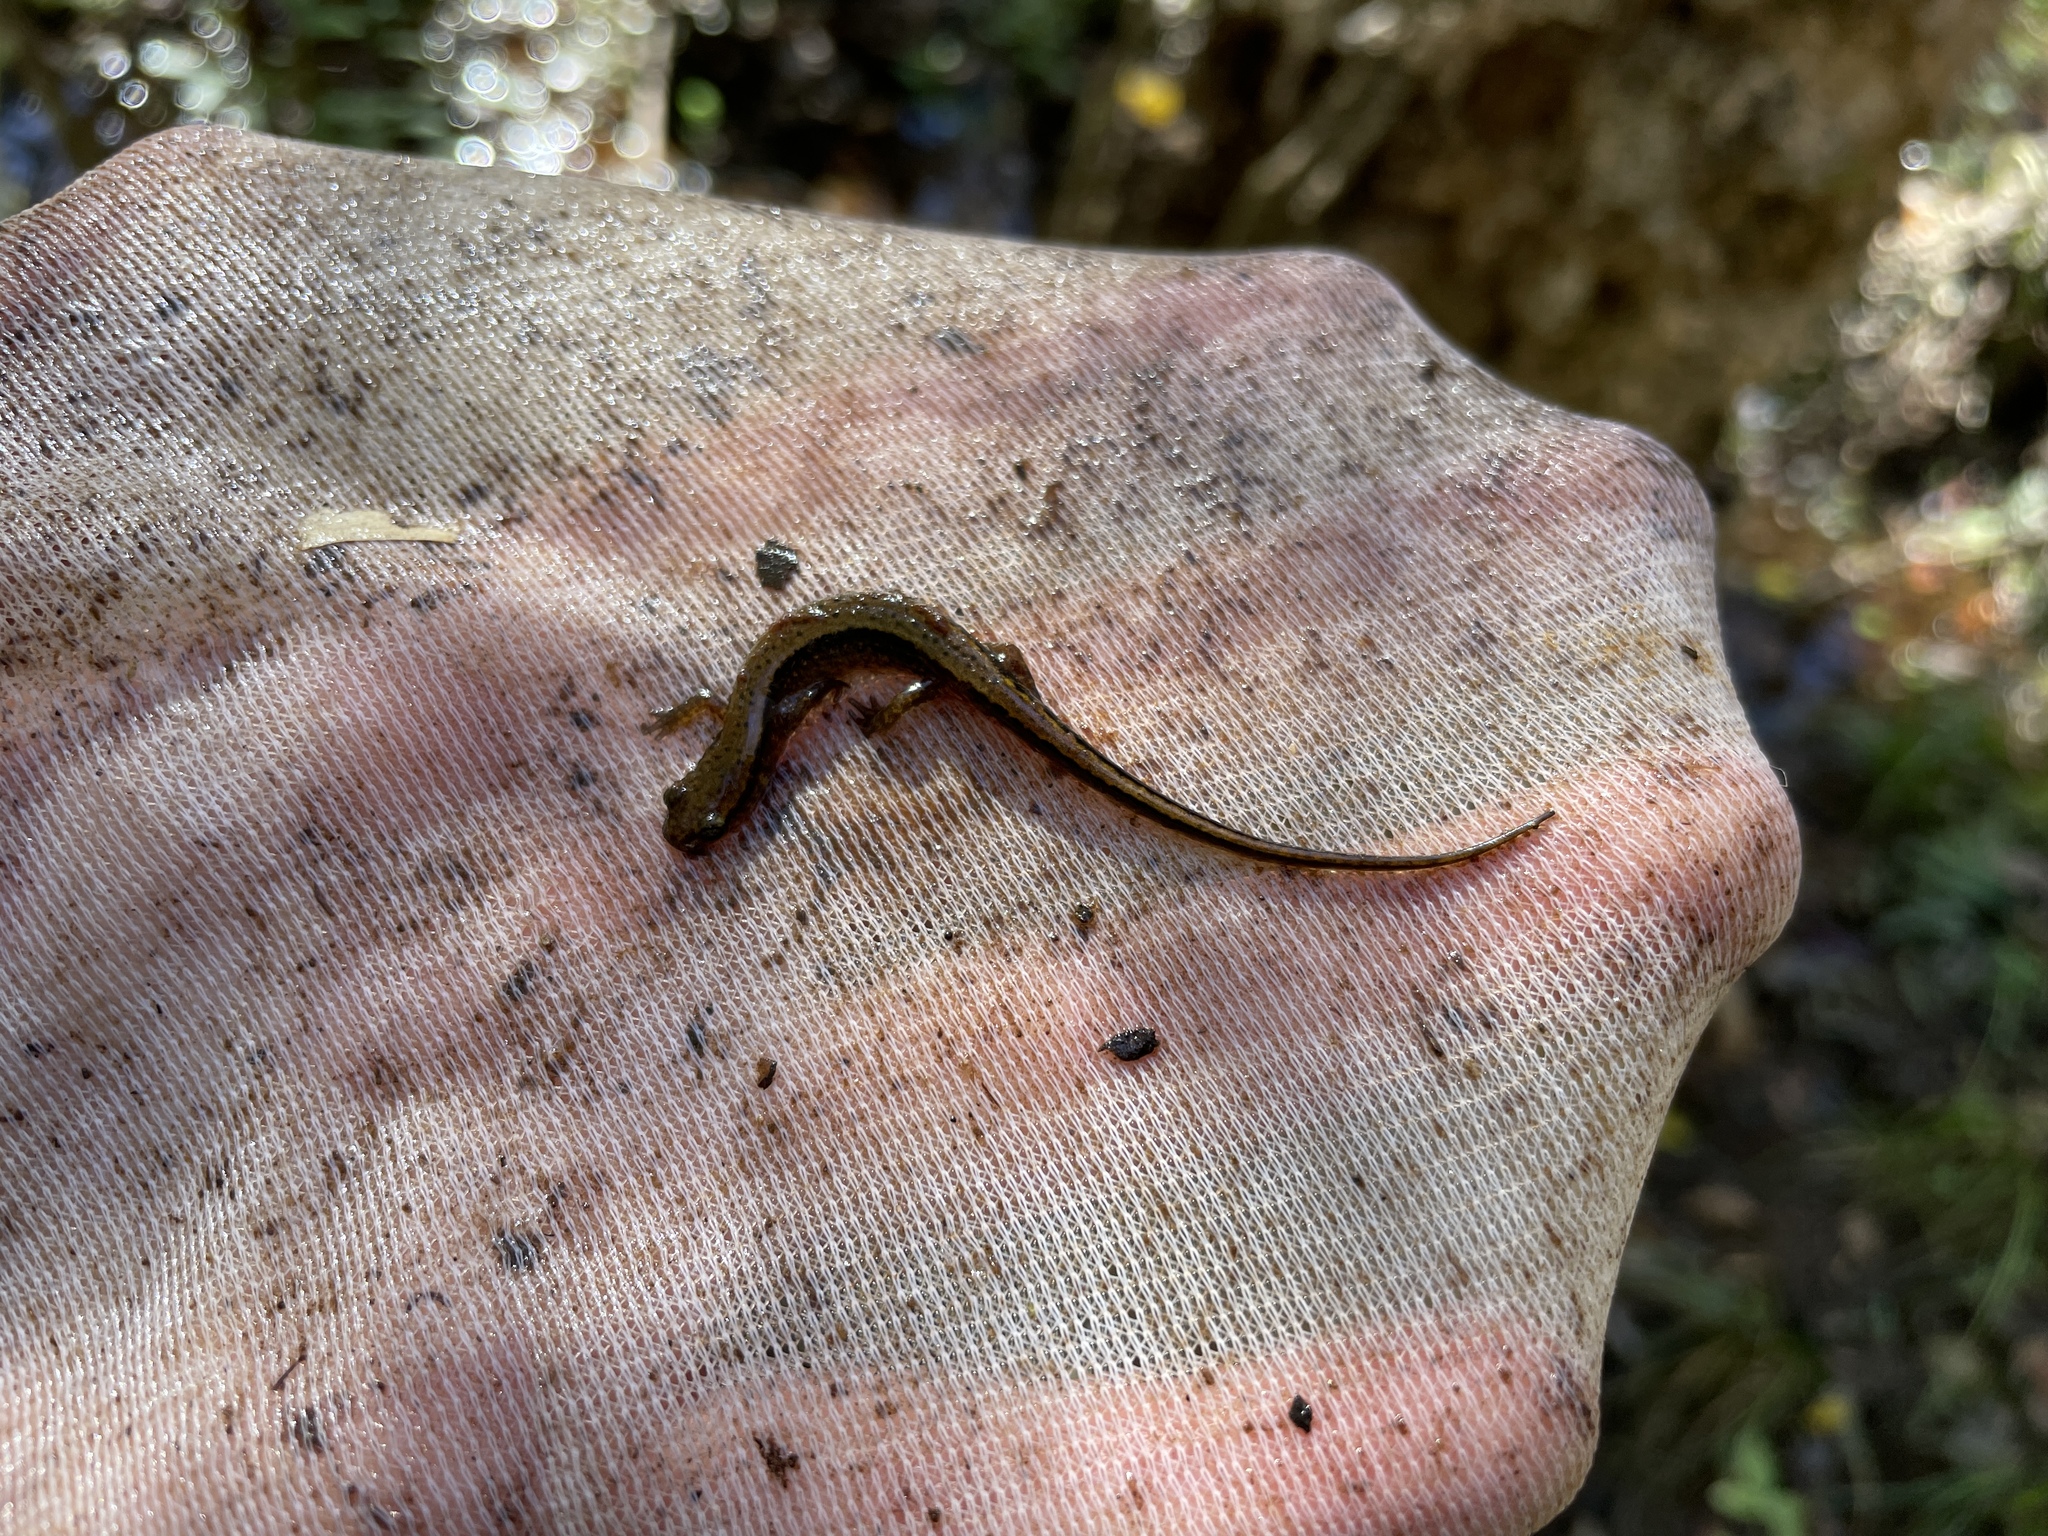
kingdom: Animalia
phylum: Chordata
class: Amphibia
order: Caudata
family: Plethodontidae
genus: Eurycea
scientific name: Eurycea cirrigera
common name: Southern two-lined salamander
